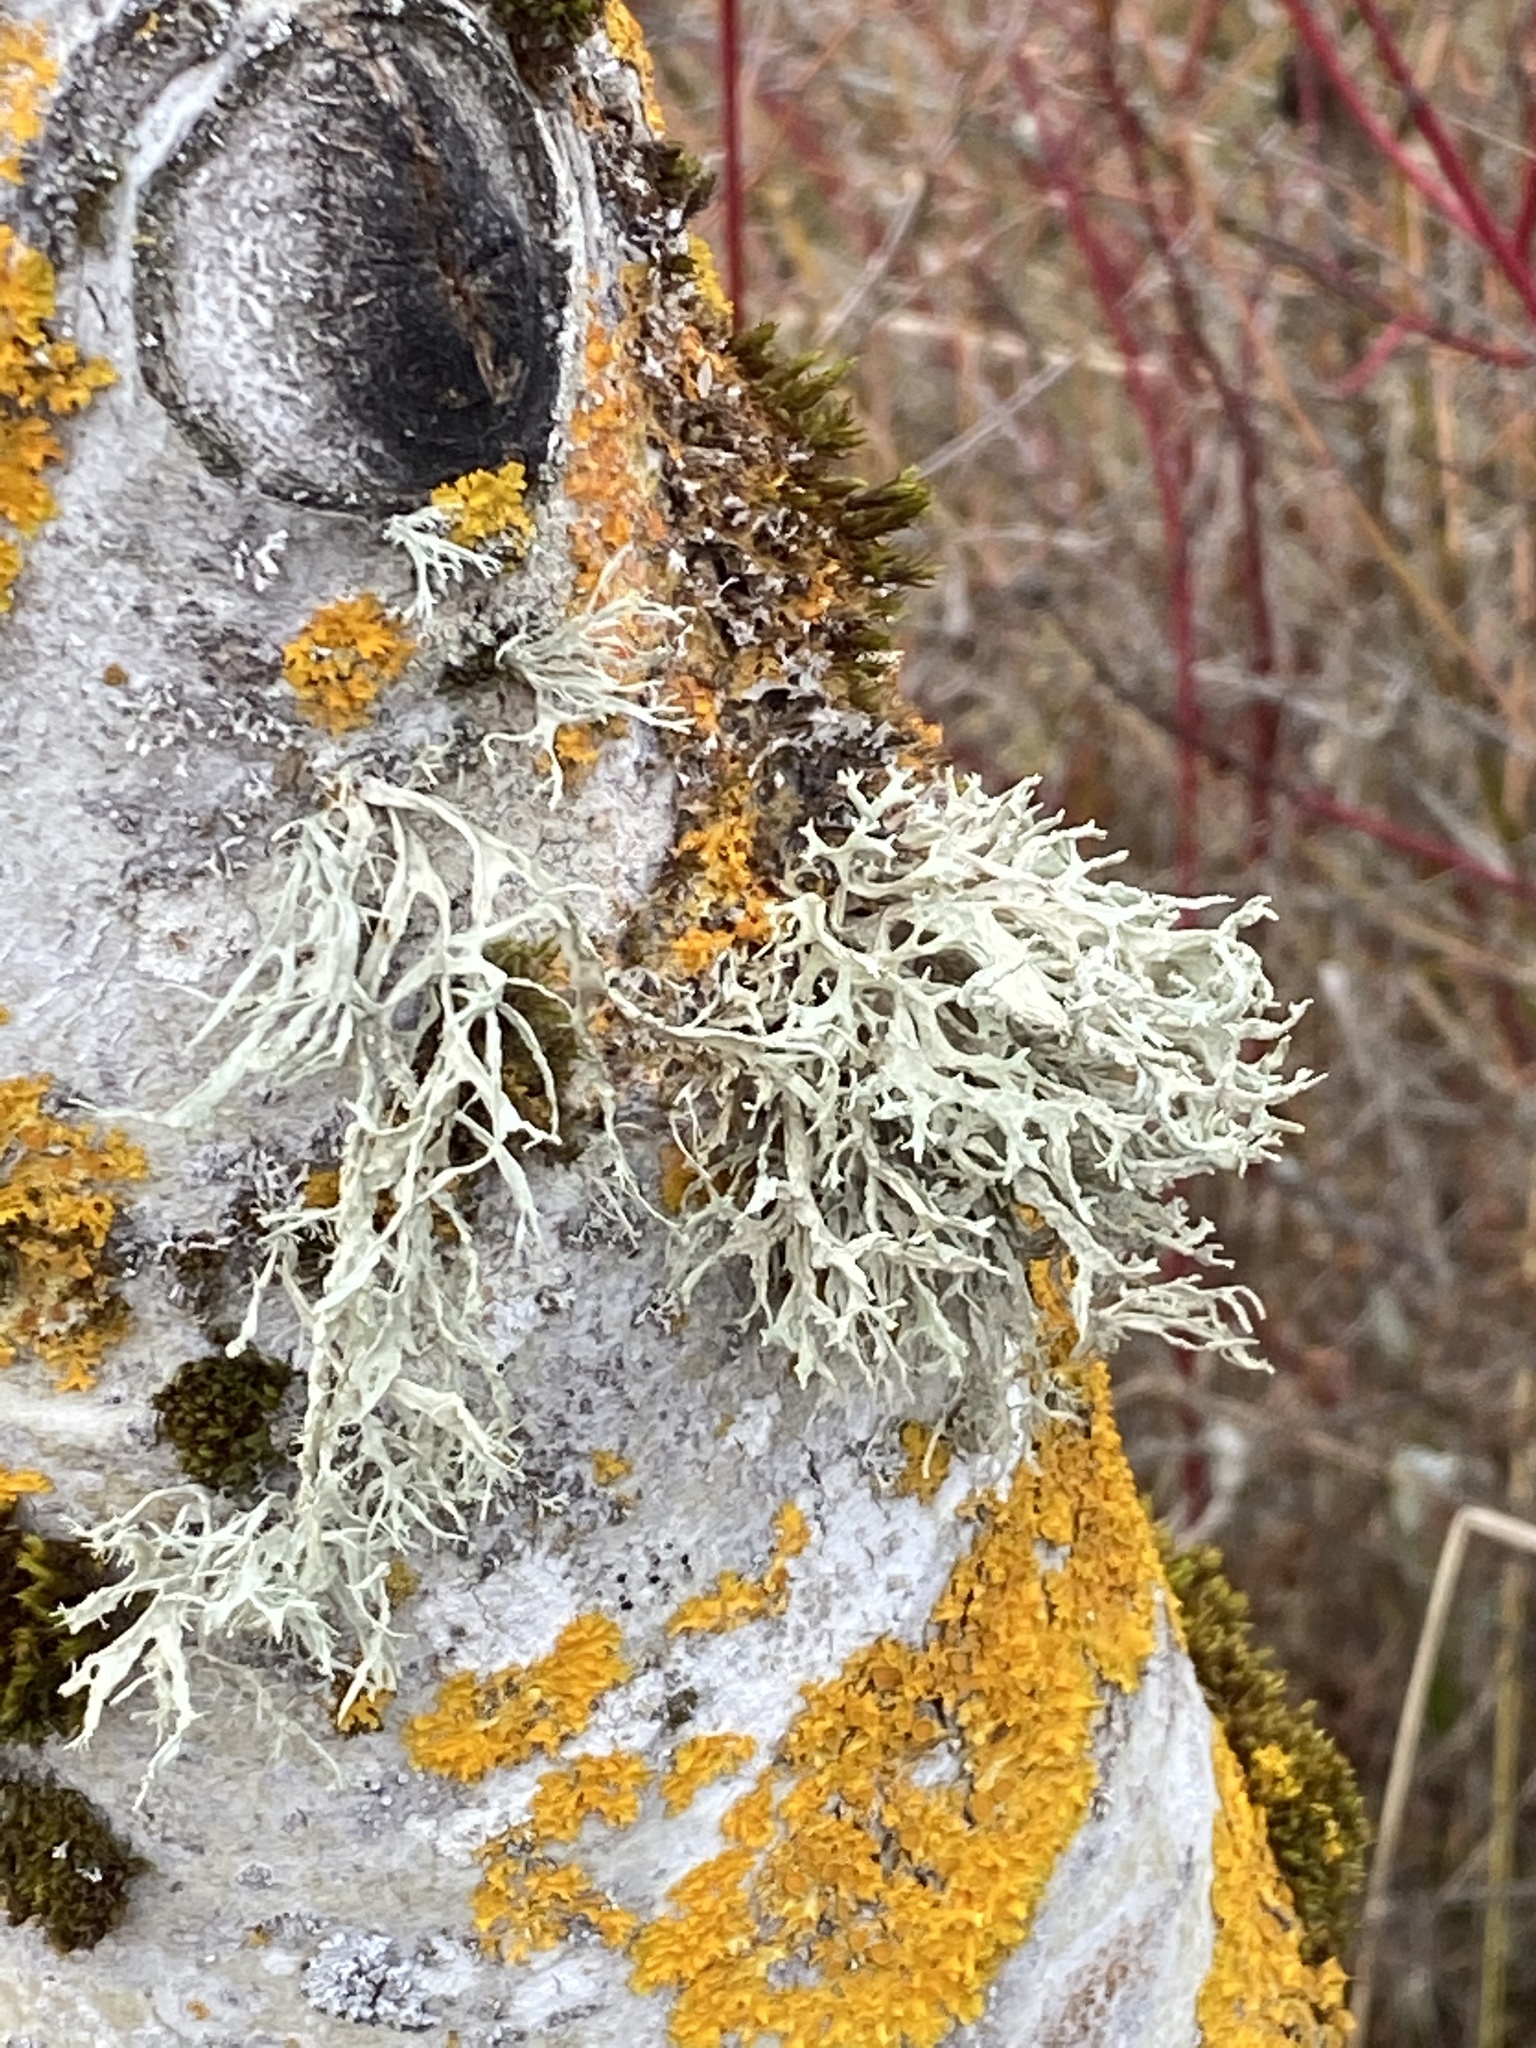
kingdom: Fungi
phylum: Ascomycota
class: Lecanoromycetes
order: Lecanorales
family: Ramalinaceae
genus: Ramalina
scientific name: Ramalina farinacea
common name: Farinose cartilage lichen
